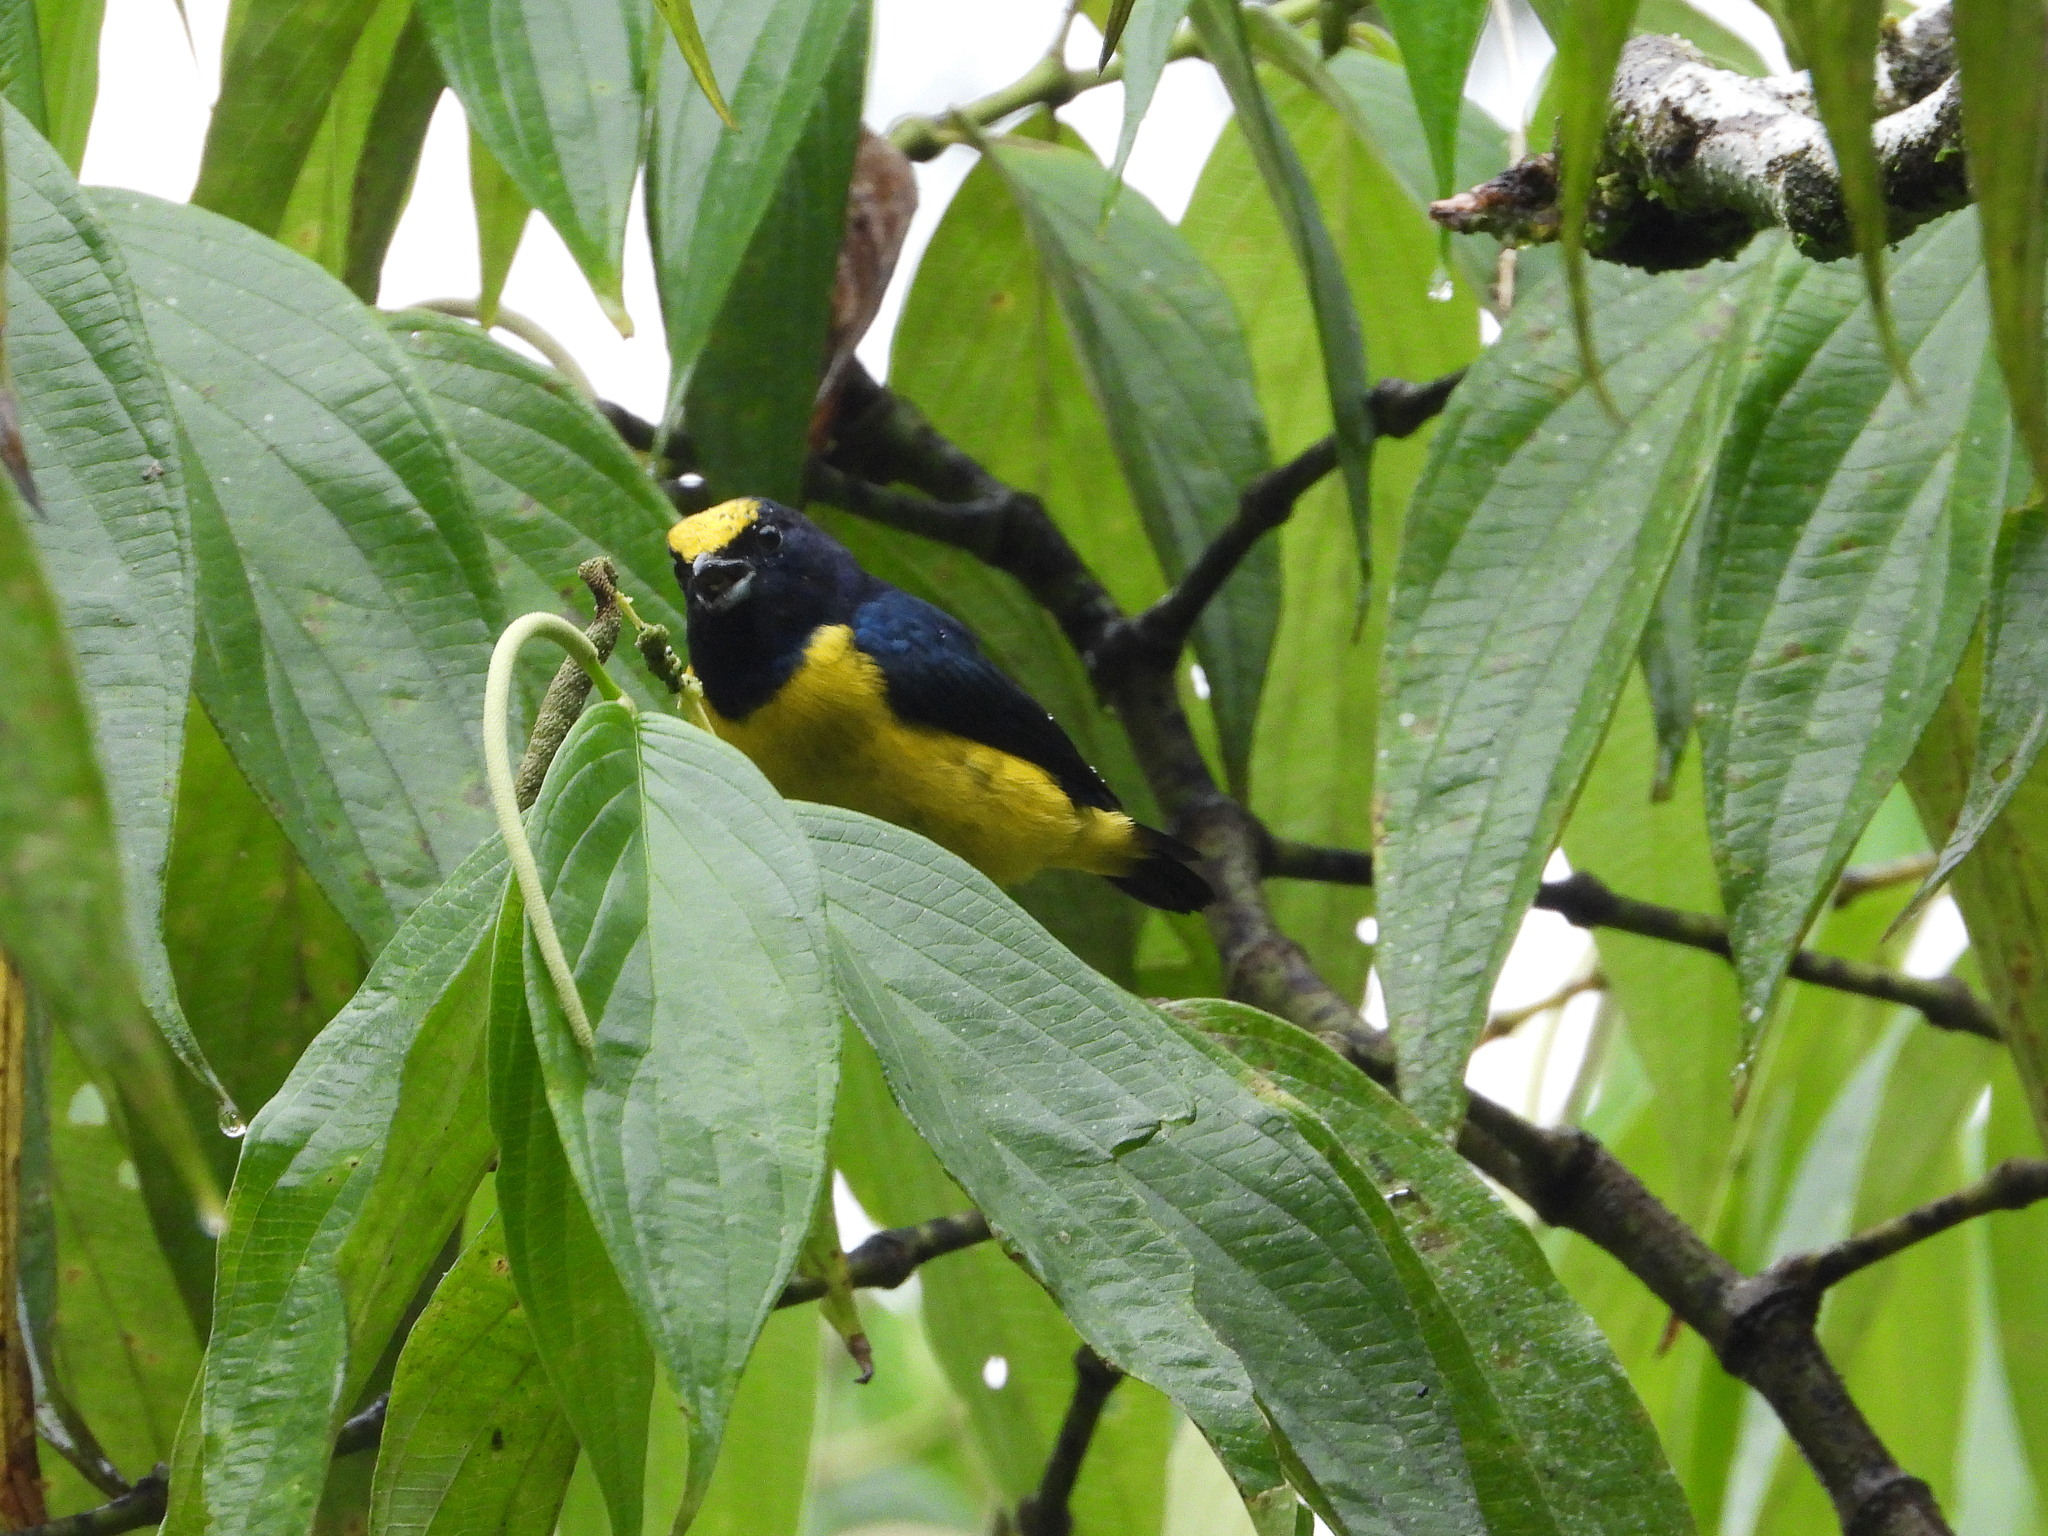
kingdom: Animalia
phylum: Chordata
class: Aves
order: Passeriformes
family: Fringillidae
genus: Euphonia
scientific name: Euphonia imitans
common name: Spot-crowned euphonia
